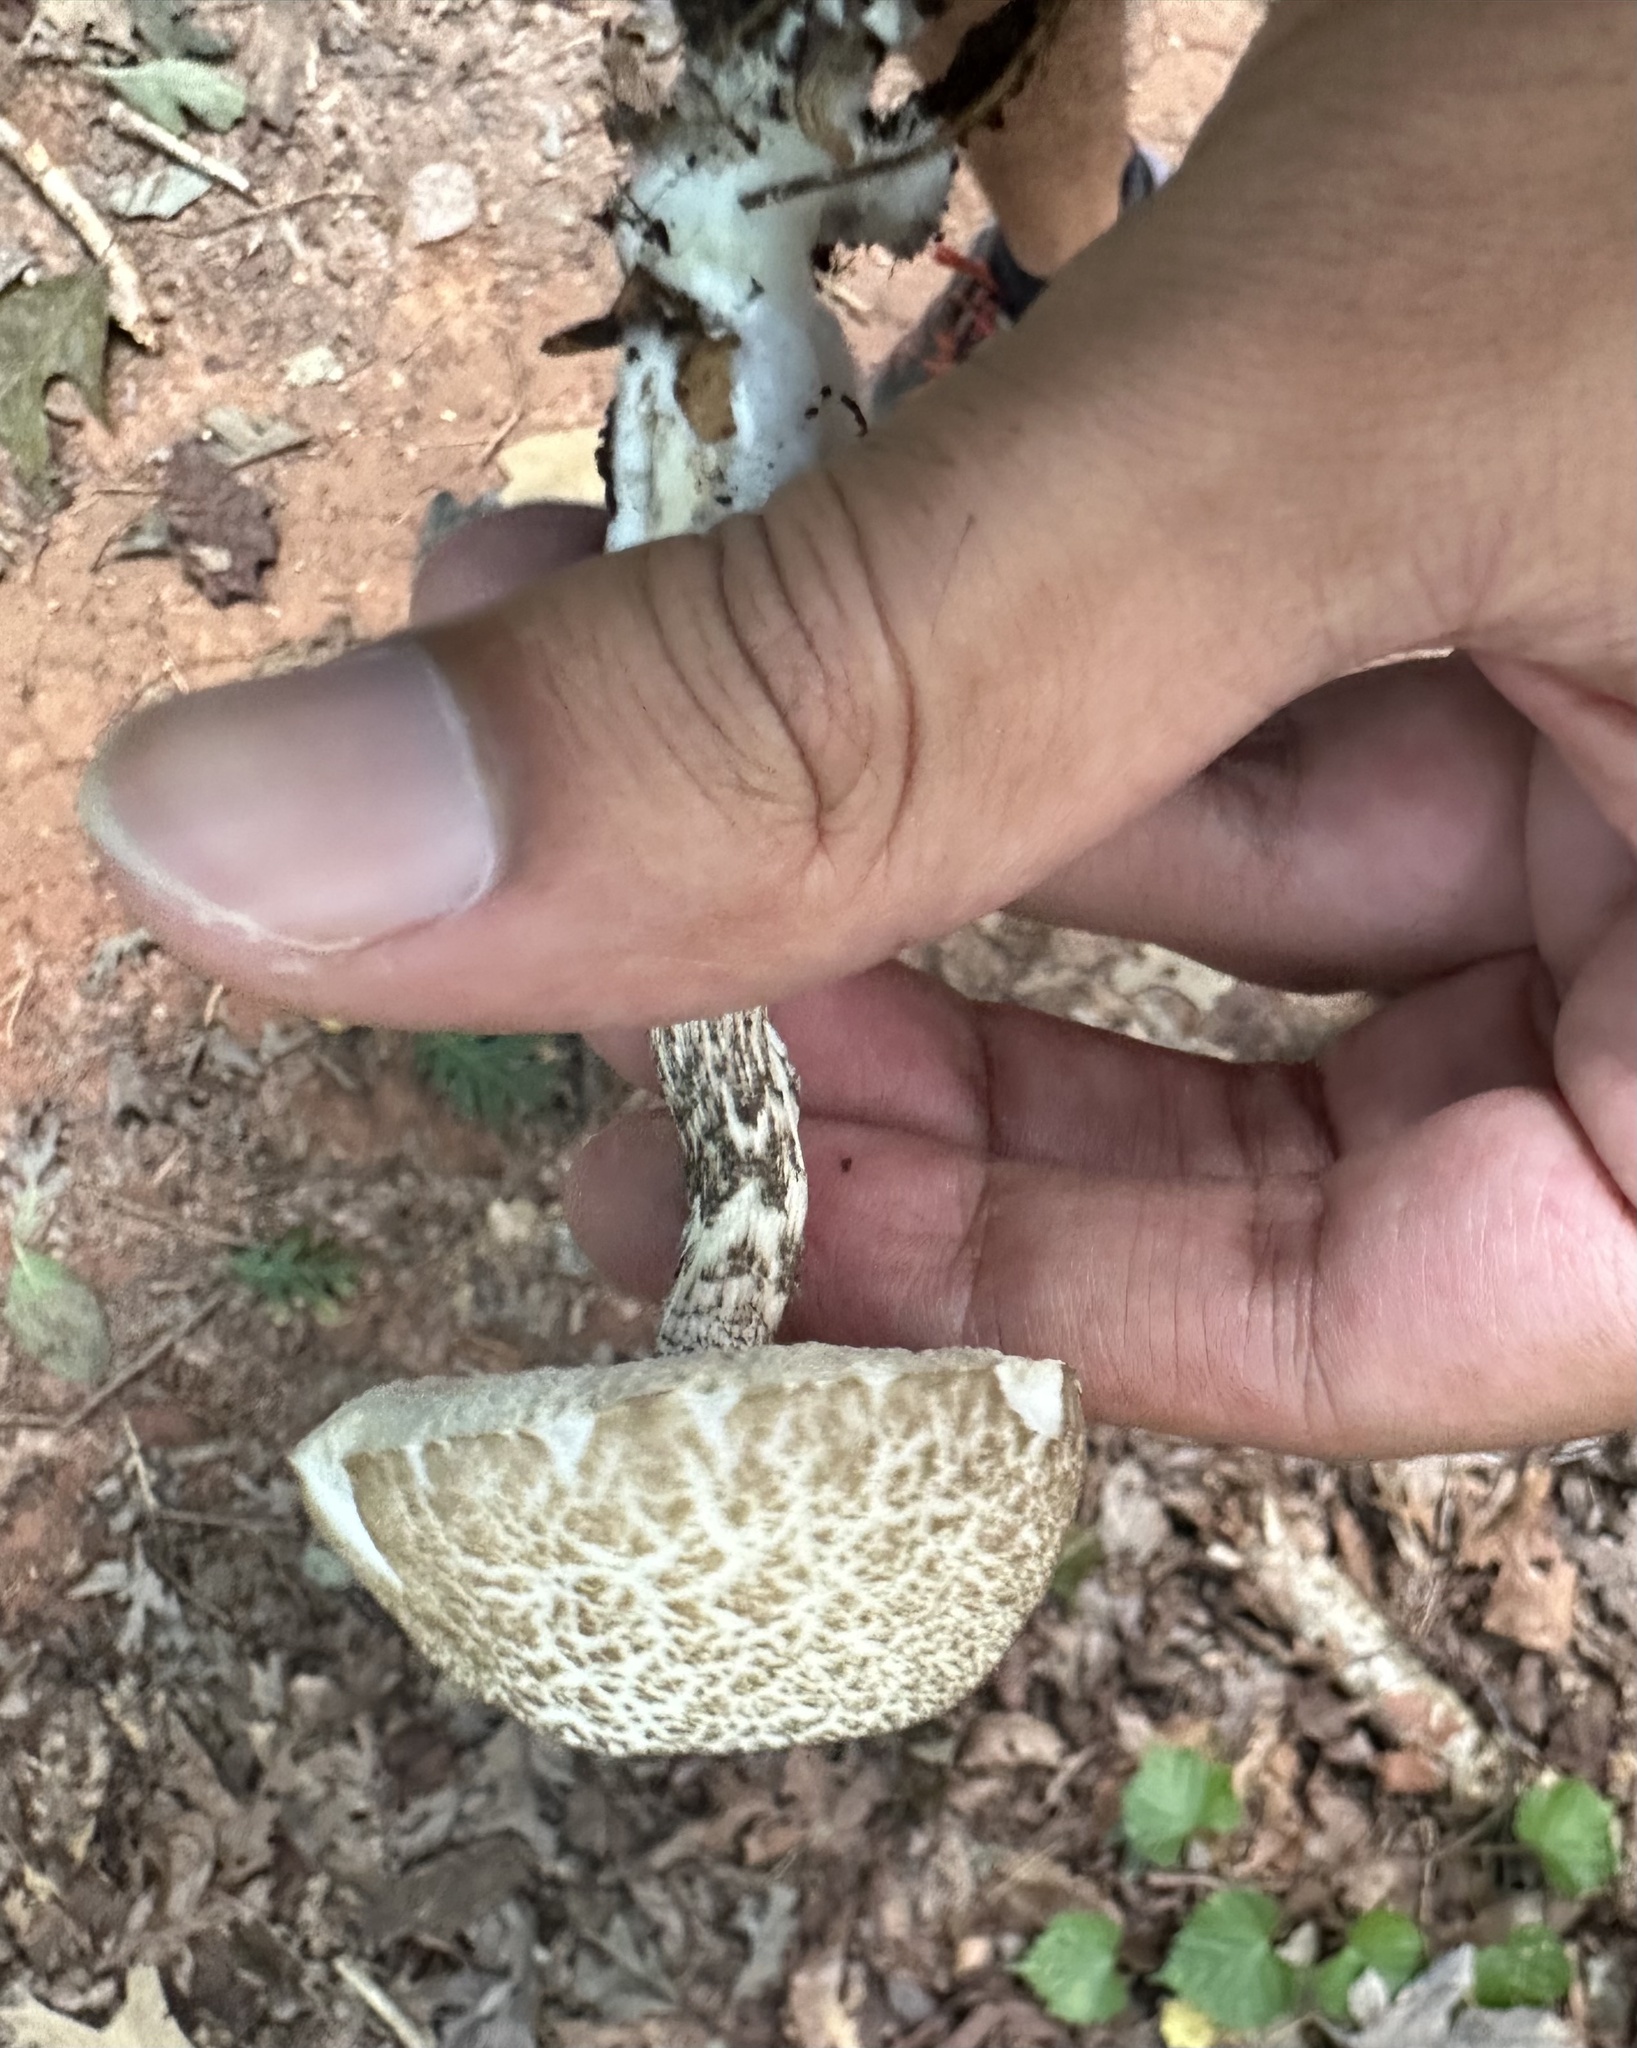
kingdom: Fungi
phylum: Basidiomycota
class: Agaricomycetes
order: Boletales
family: Boletaceae
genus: Leccinellum
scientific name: Leccinellum albellum
